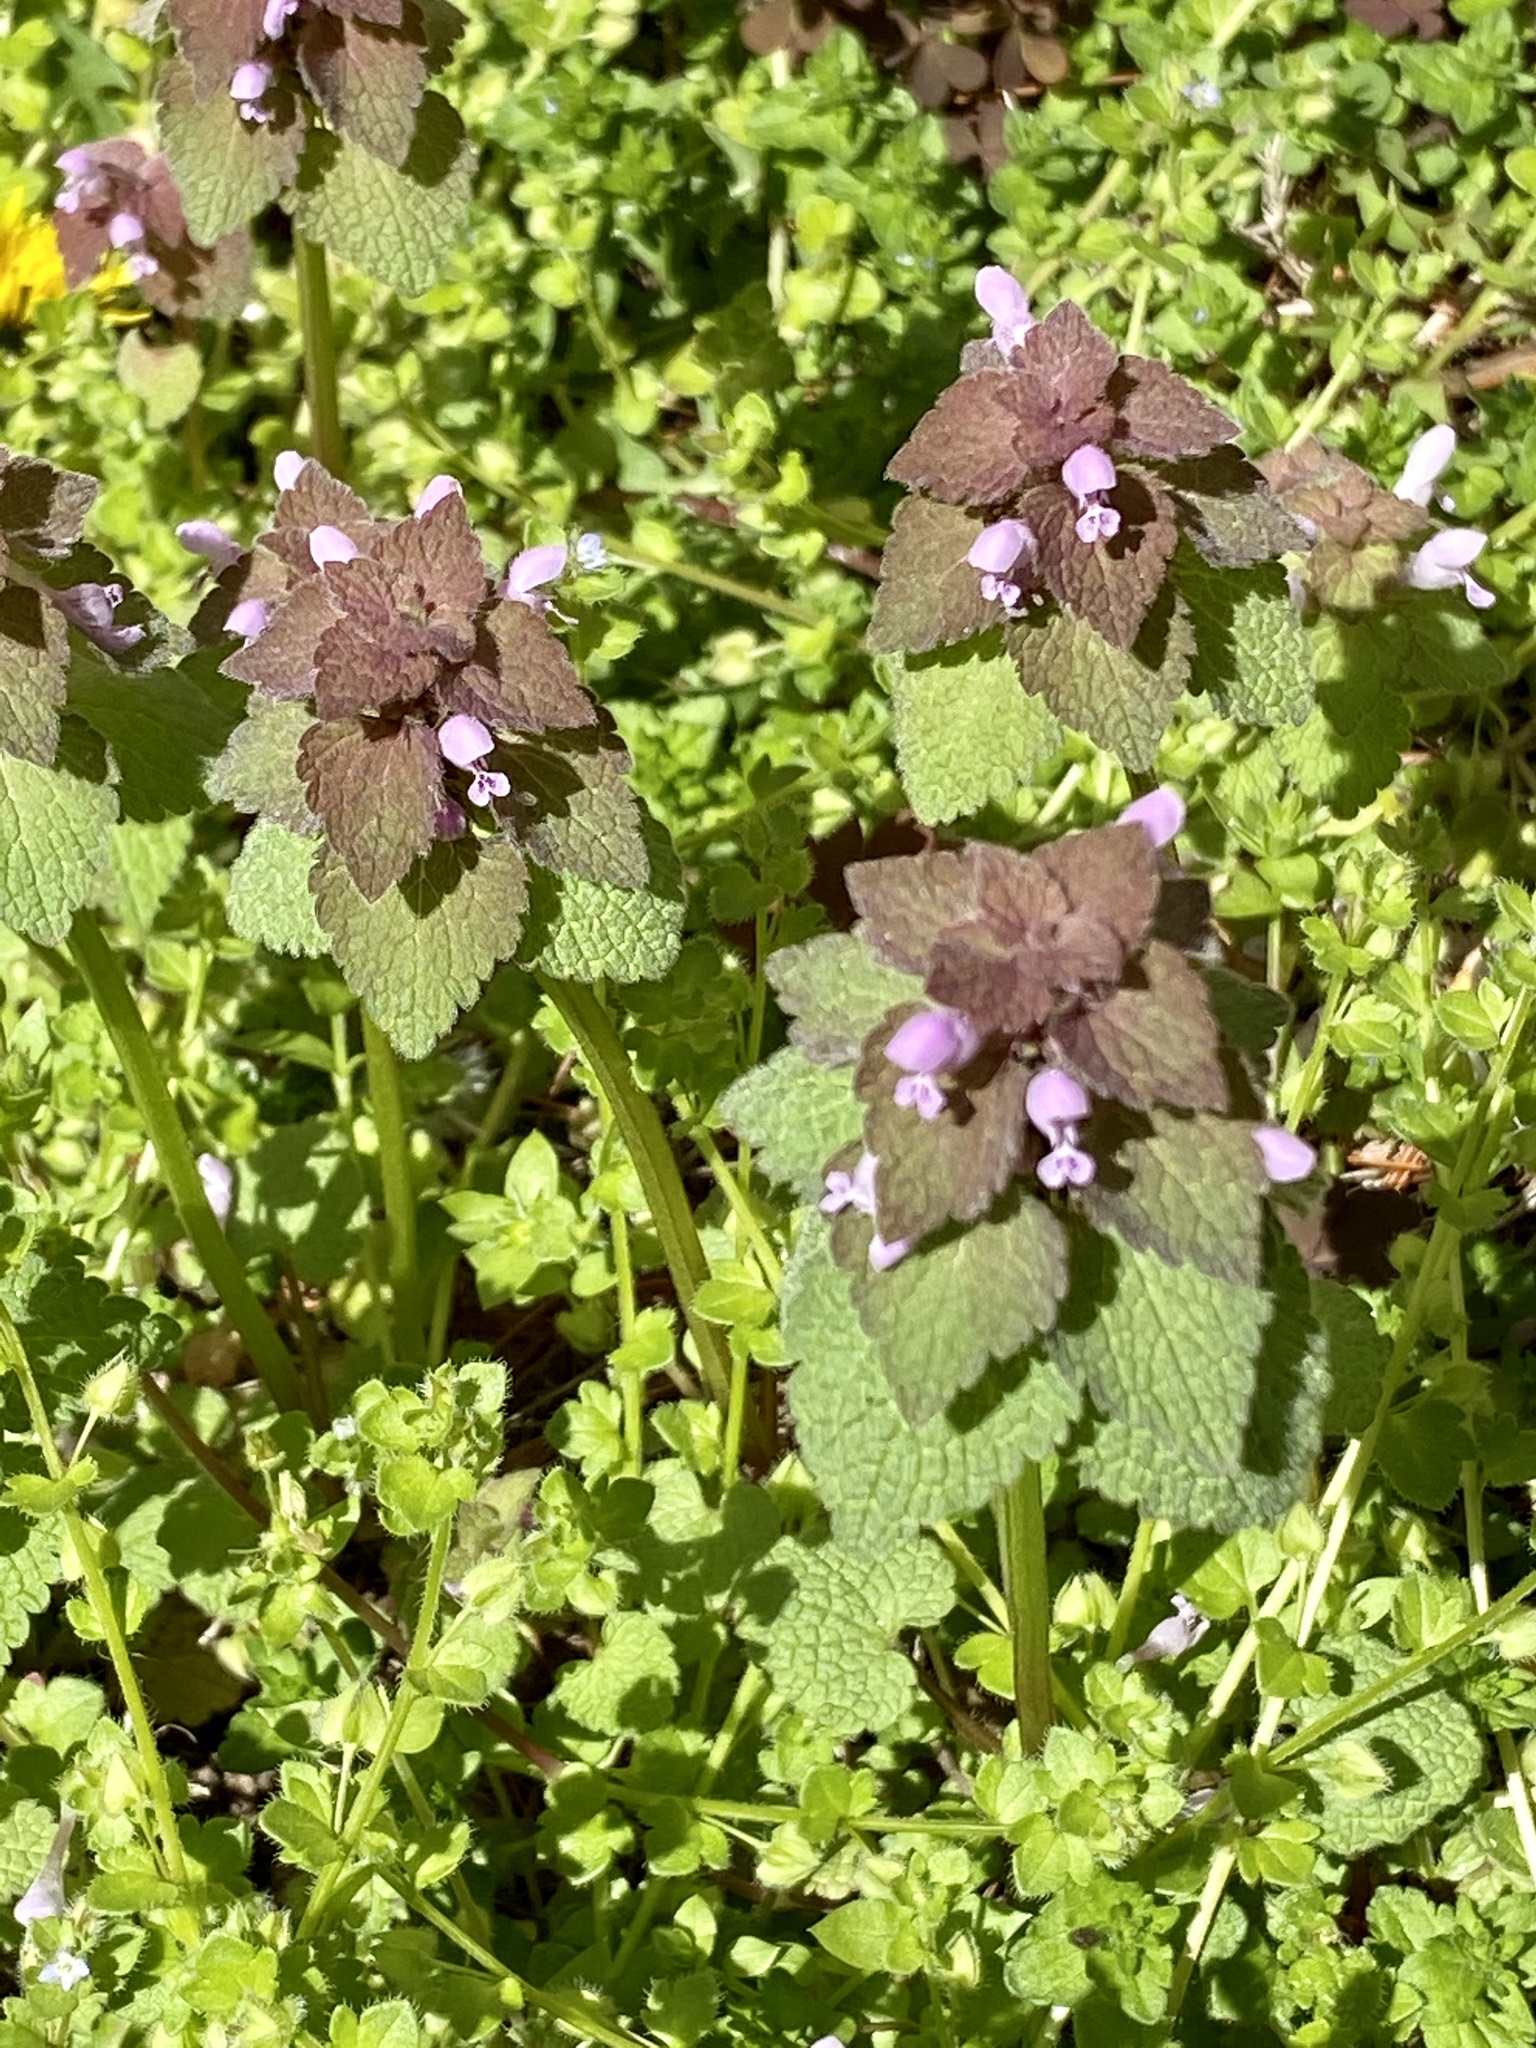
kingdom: Plantae
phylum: Tracheophyta
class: Magnoliopsida
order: Lamiales
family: Lamiaceae
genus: Lamium
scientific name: Lamium purpureum
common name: Red dead-nettle
